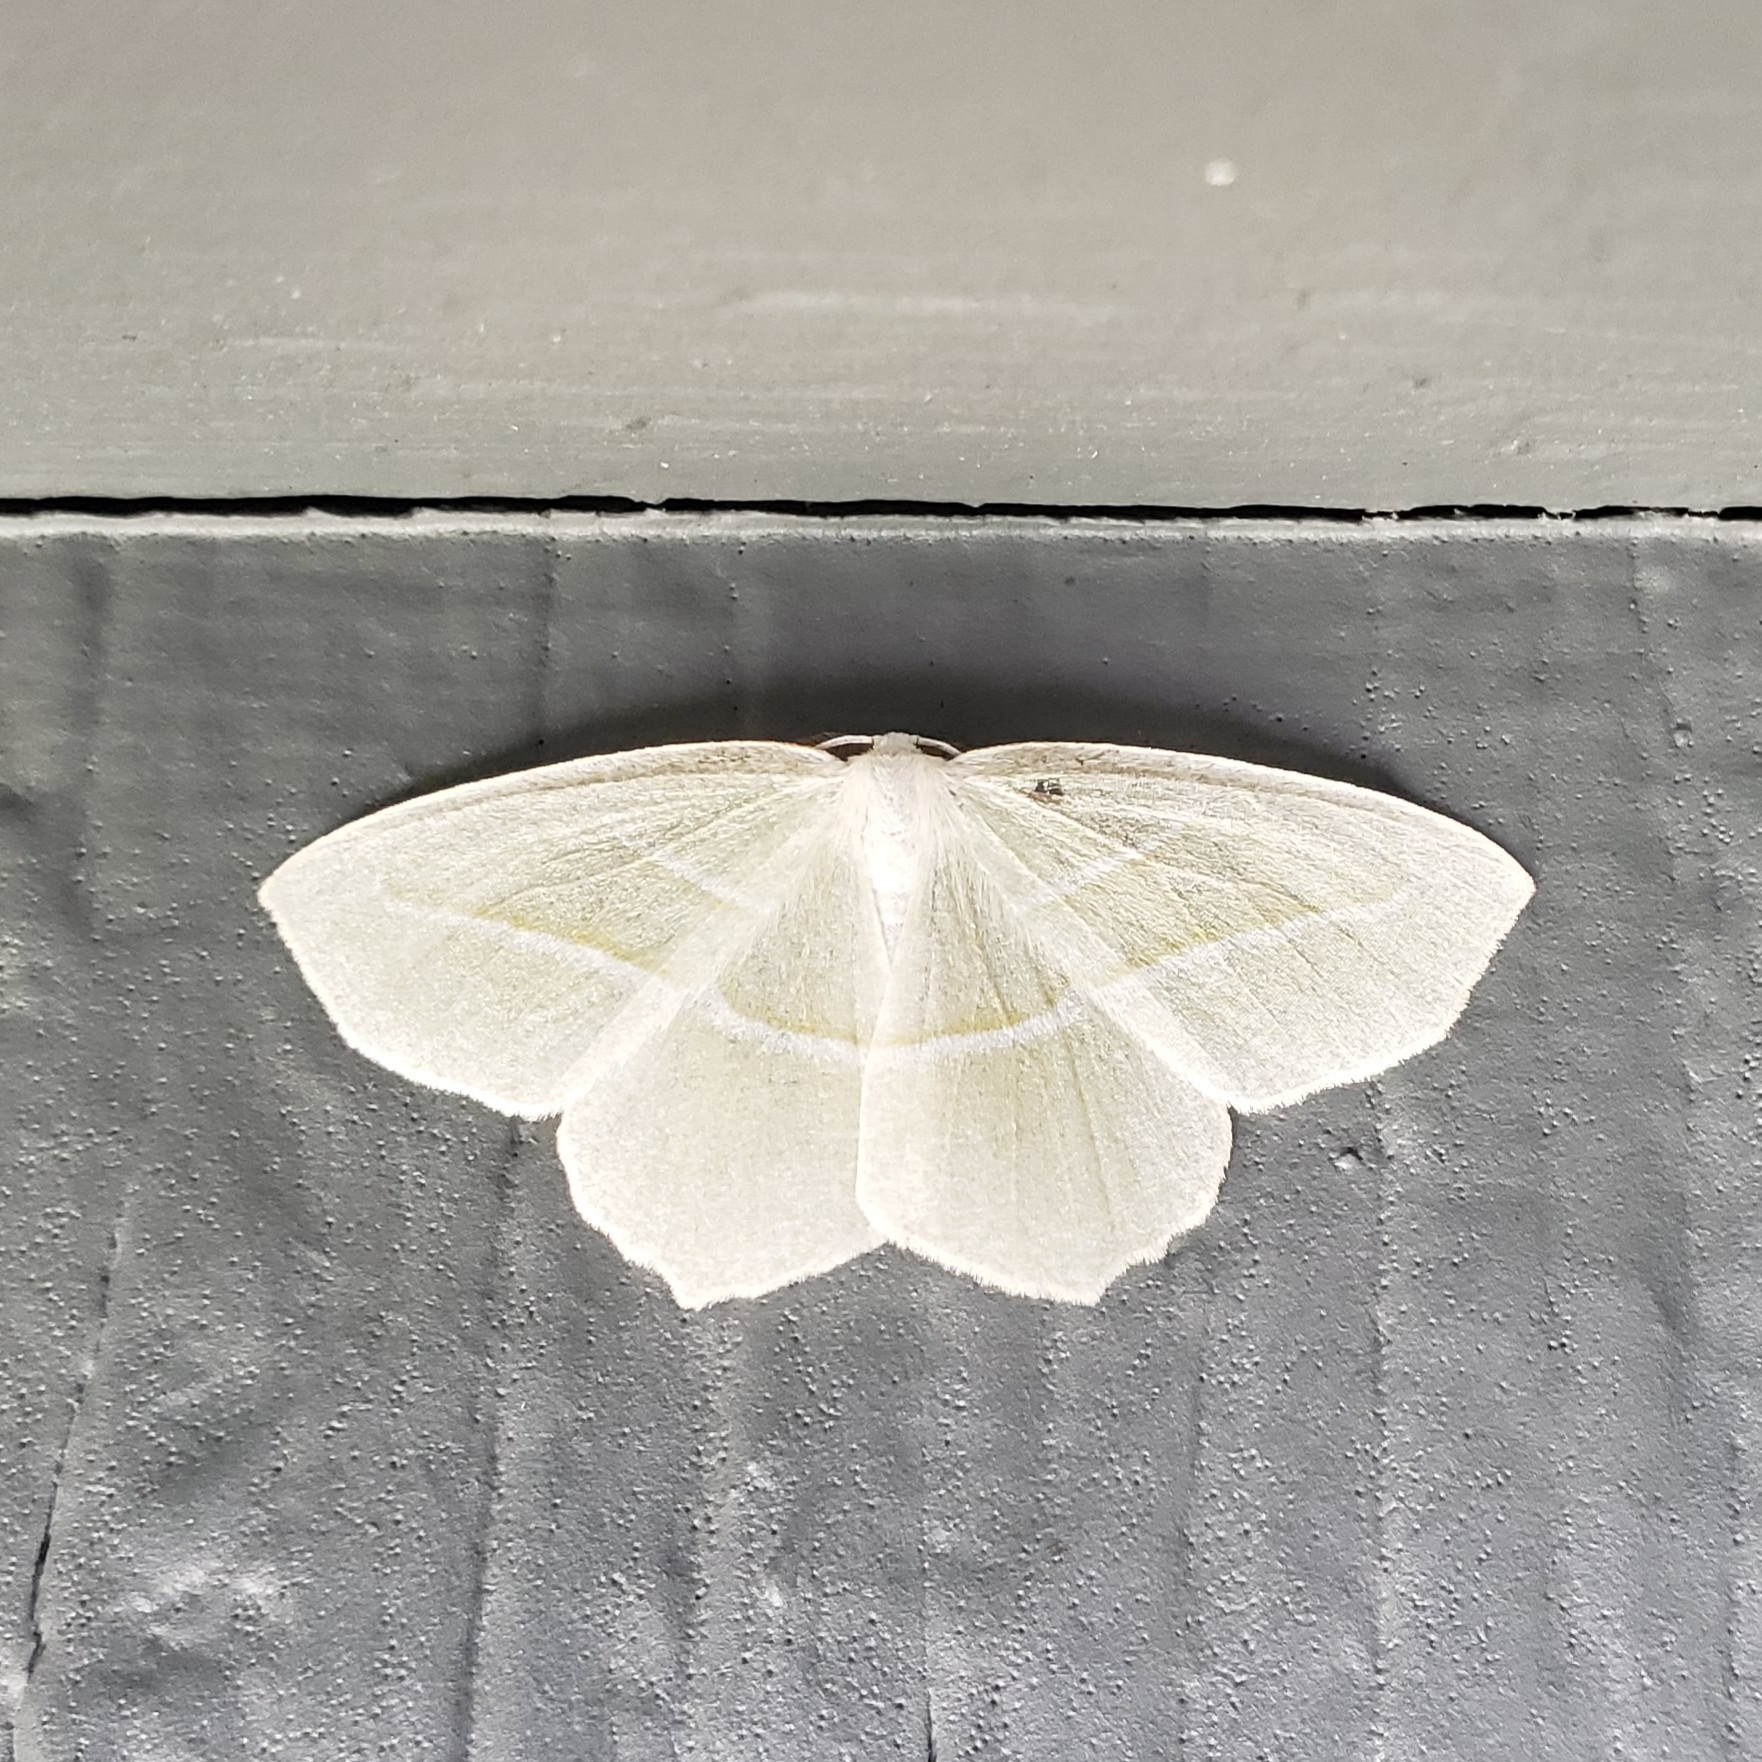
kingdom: Animalia
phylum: Arthropoda
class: Insecta
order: Lepidoptera
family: Geometridae
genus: Campaea
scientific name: Campaea perlata
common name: Fringed looper
